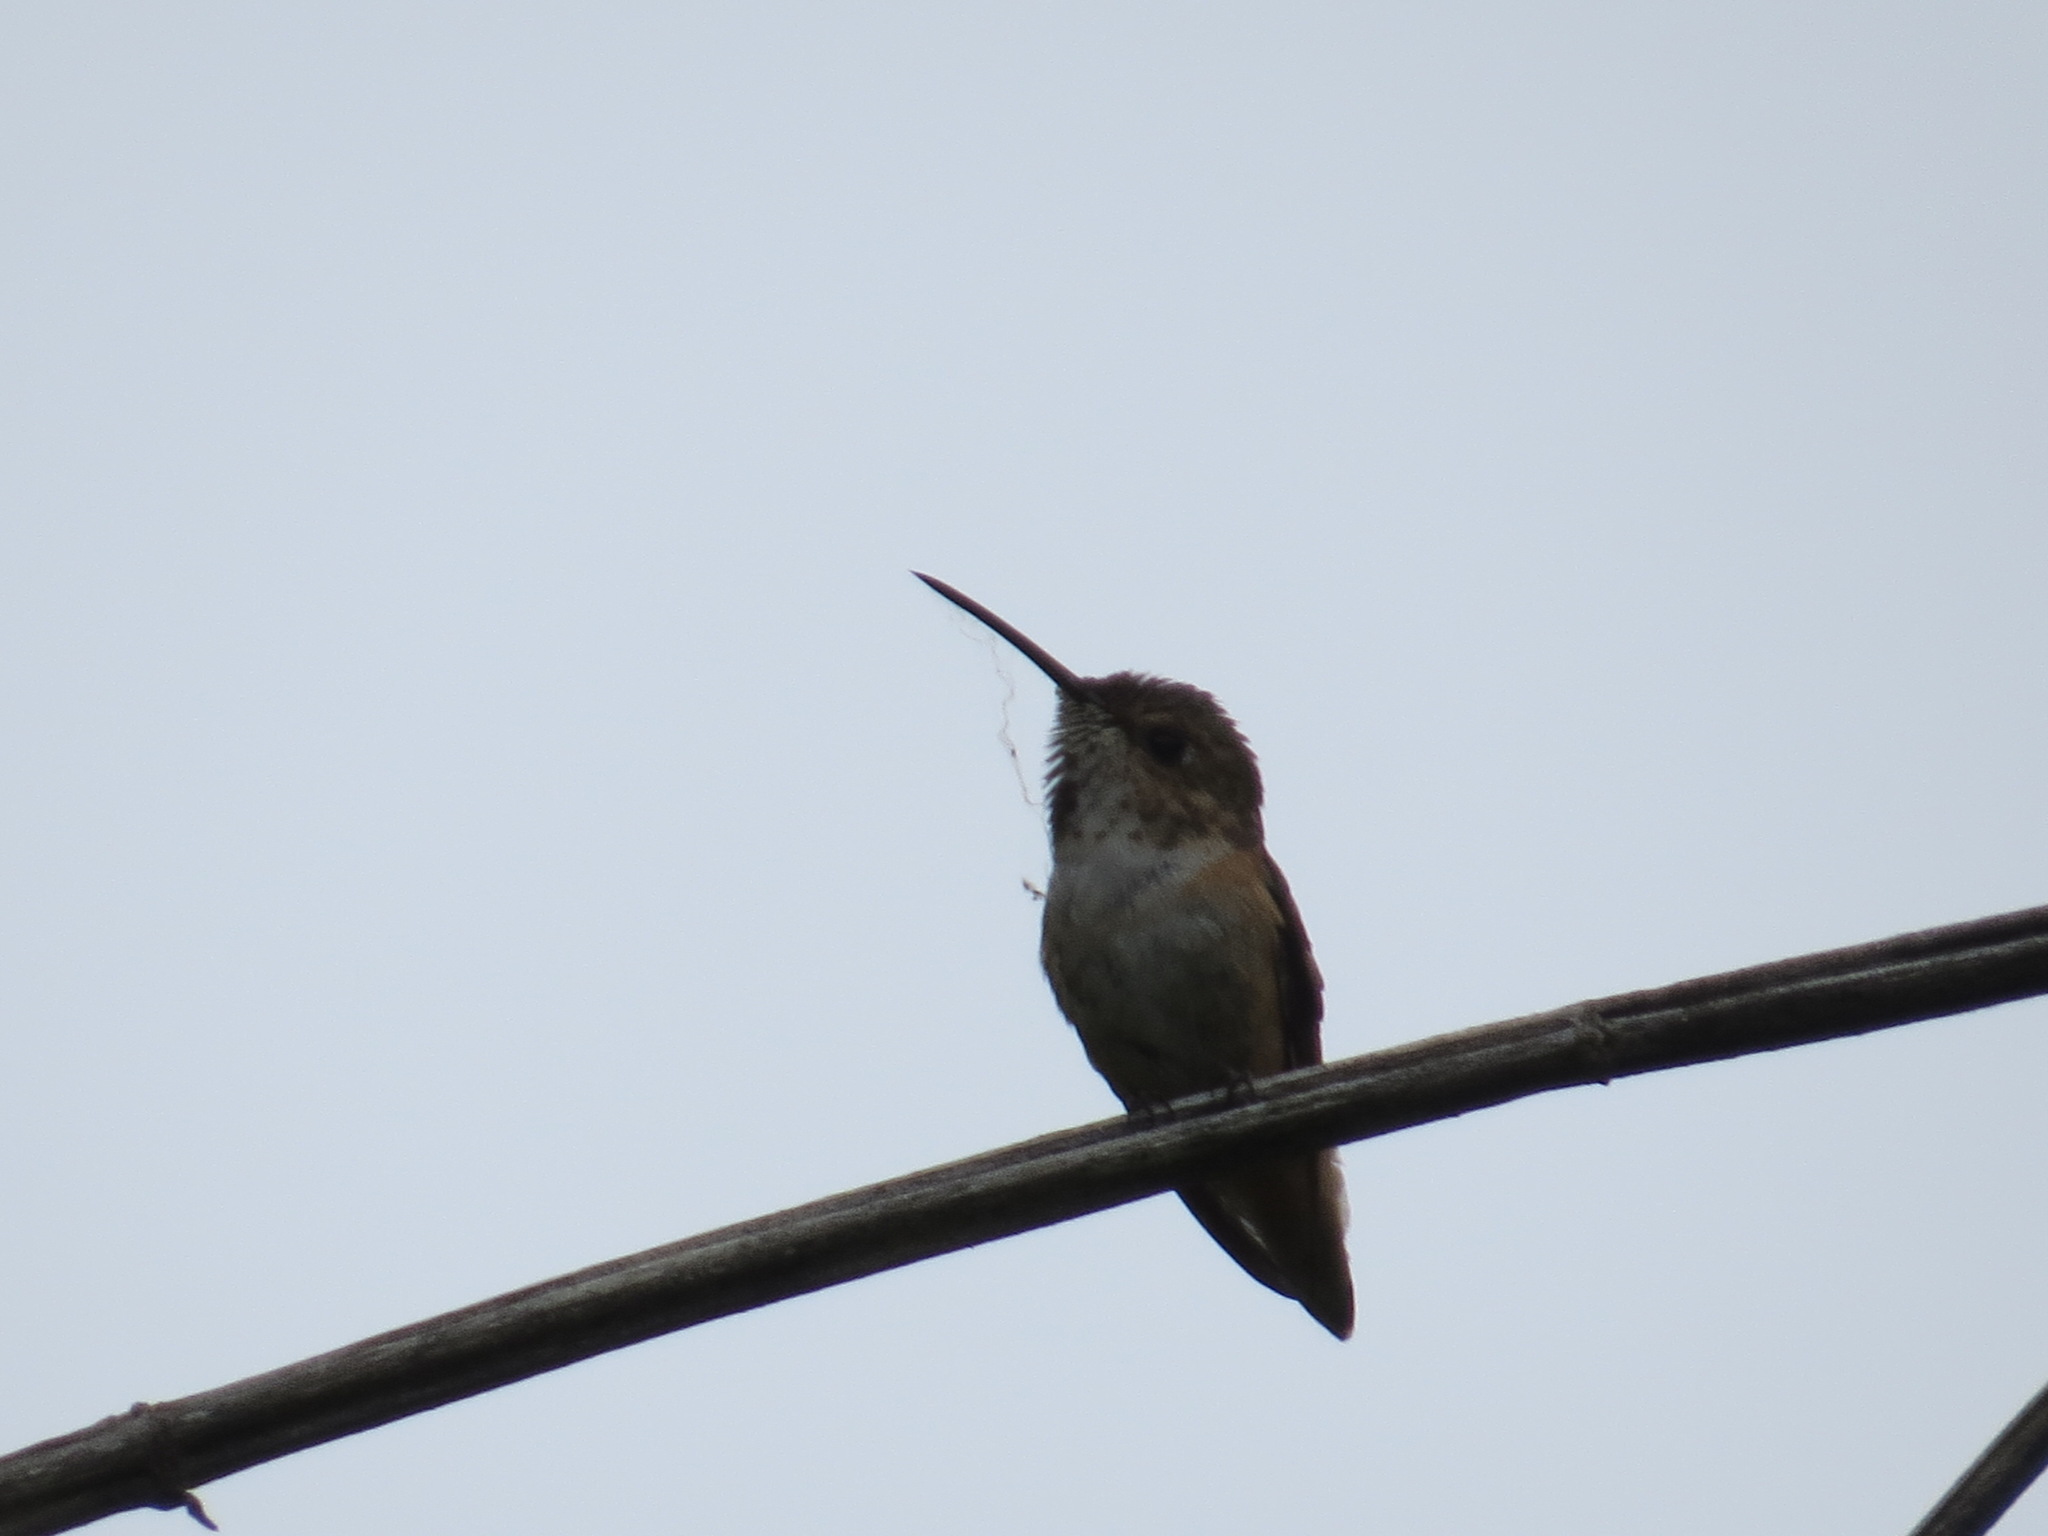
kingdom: Animalia
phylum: Chordata
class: Aves
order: Apodiformes
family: Trochilidae
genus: Selasphorus
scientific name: Selasphorus sasin
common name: Allen's hummingbird
